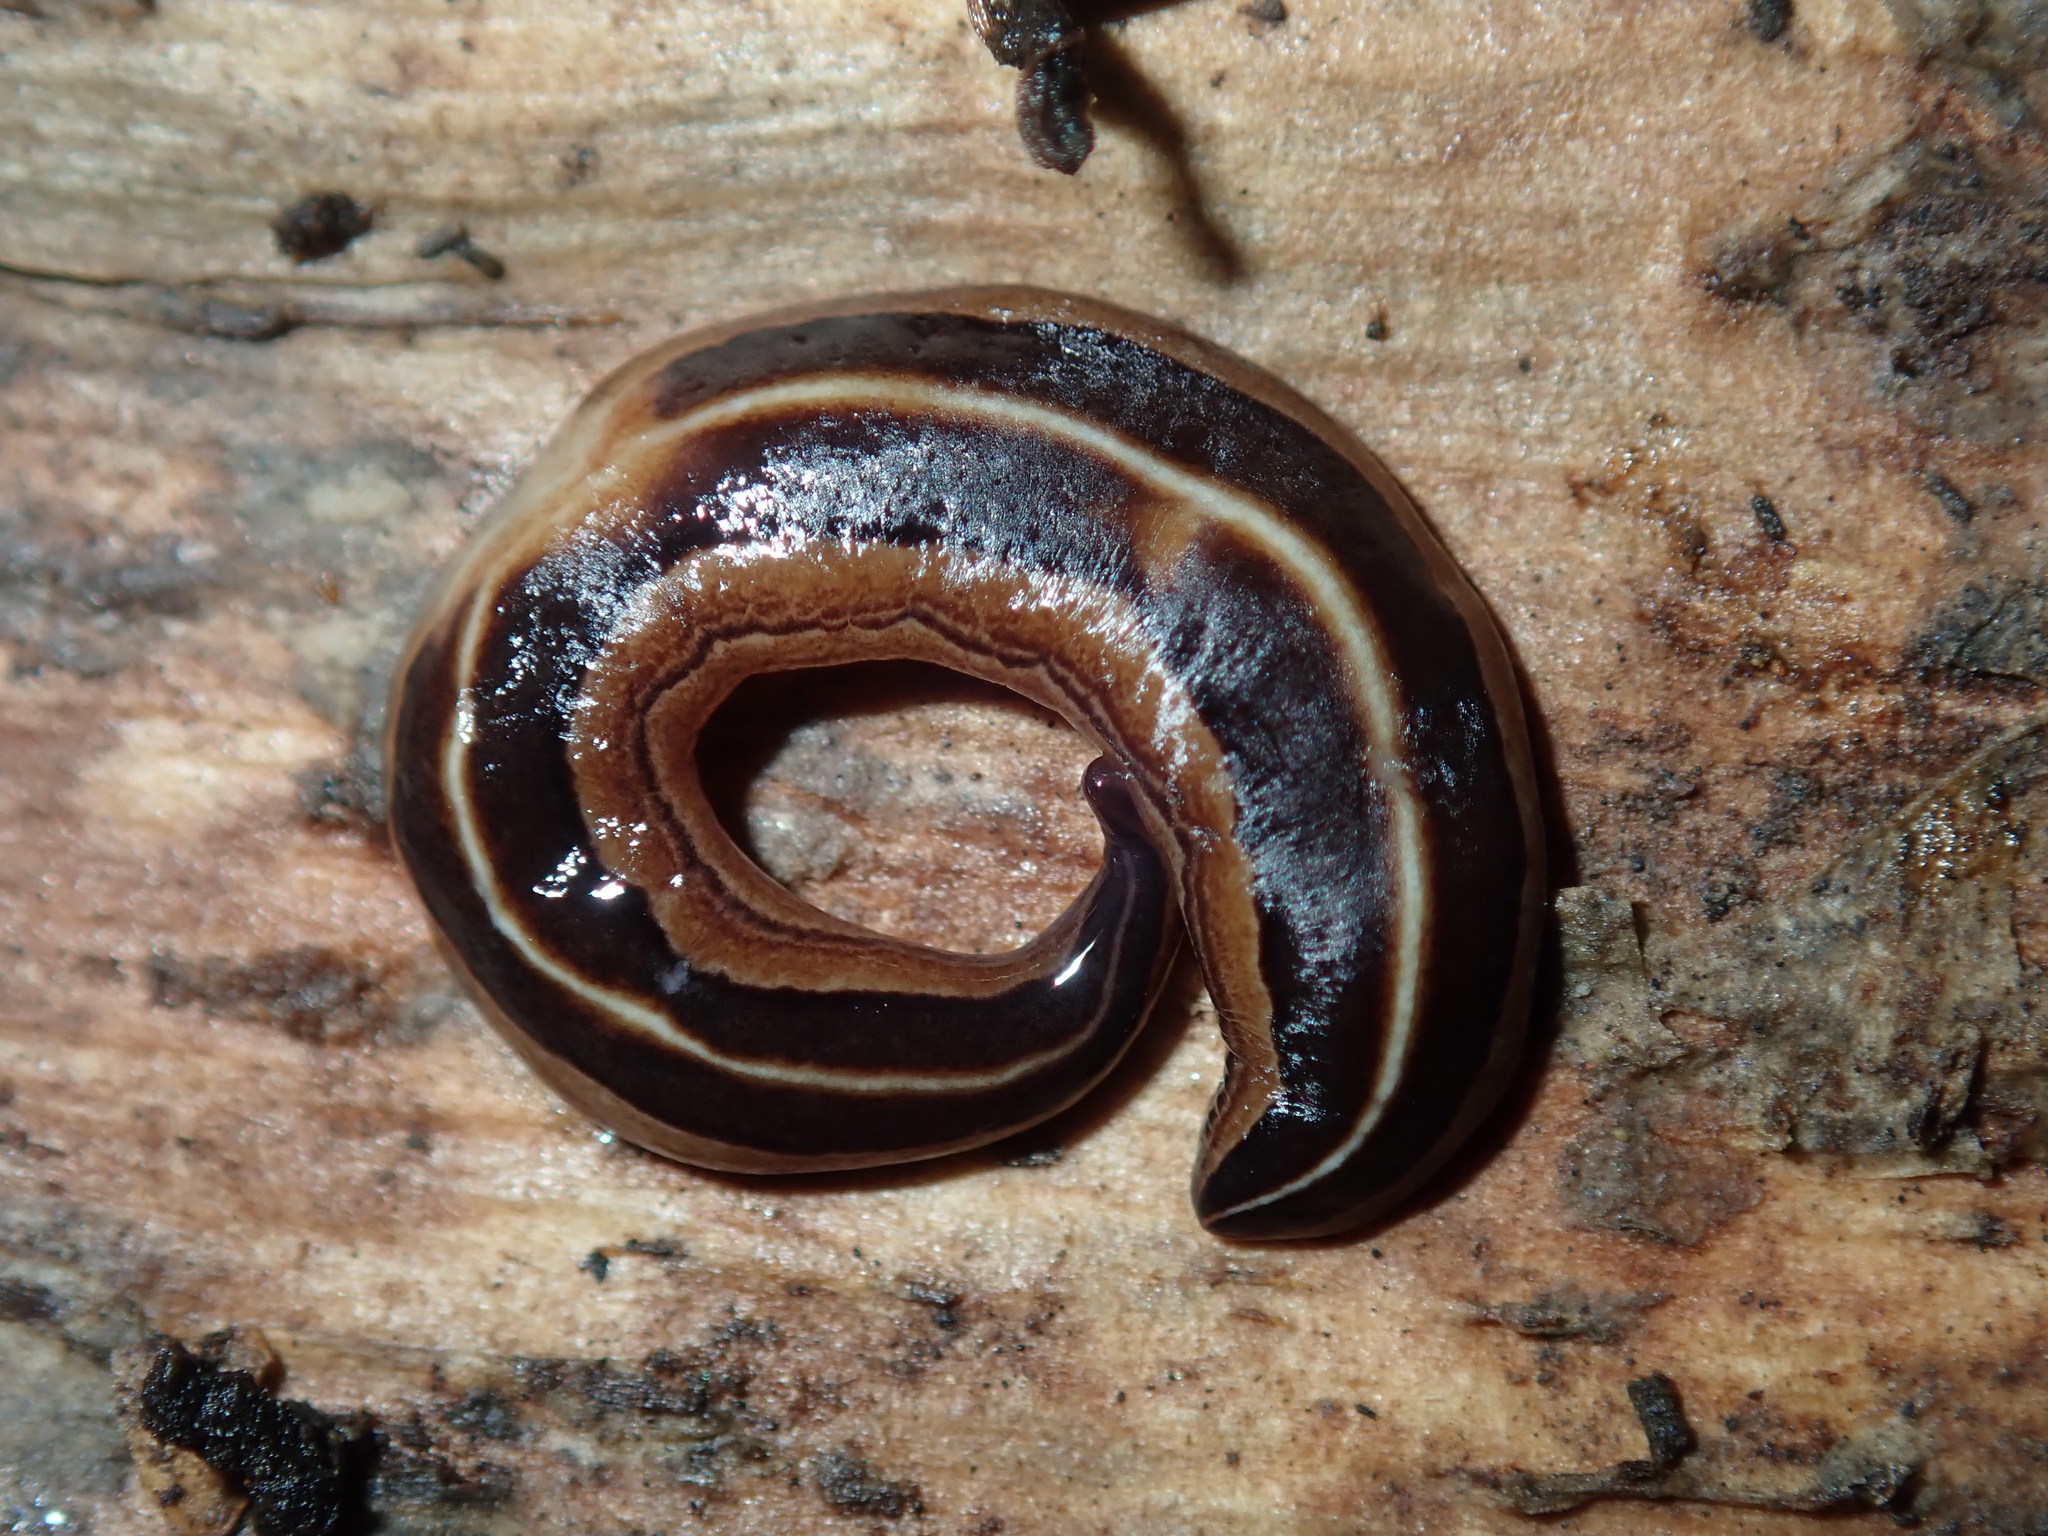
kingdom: Animalia
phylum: Platyhelminthes
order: Tricladida
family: Geoplanidae
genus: Australopacifica
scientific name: Australopacifica scaphoidea
